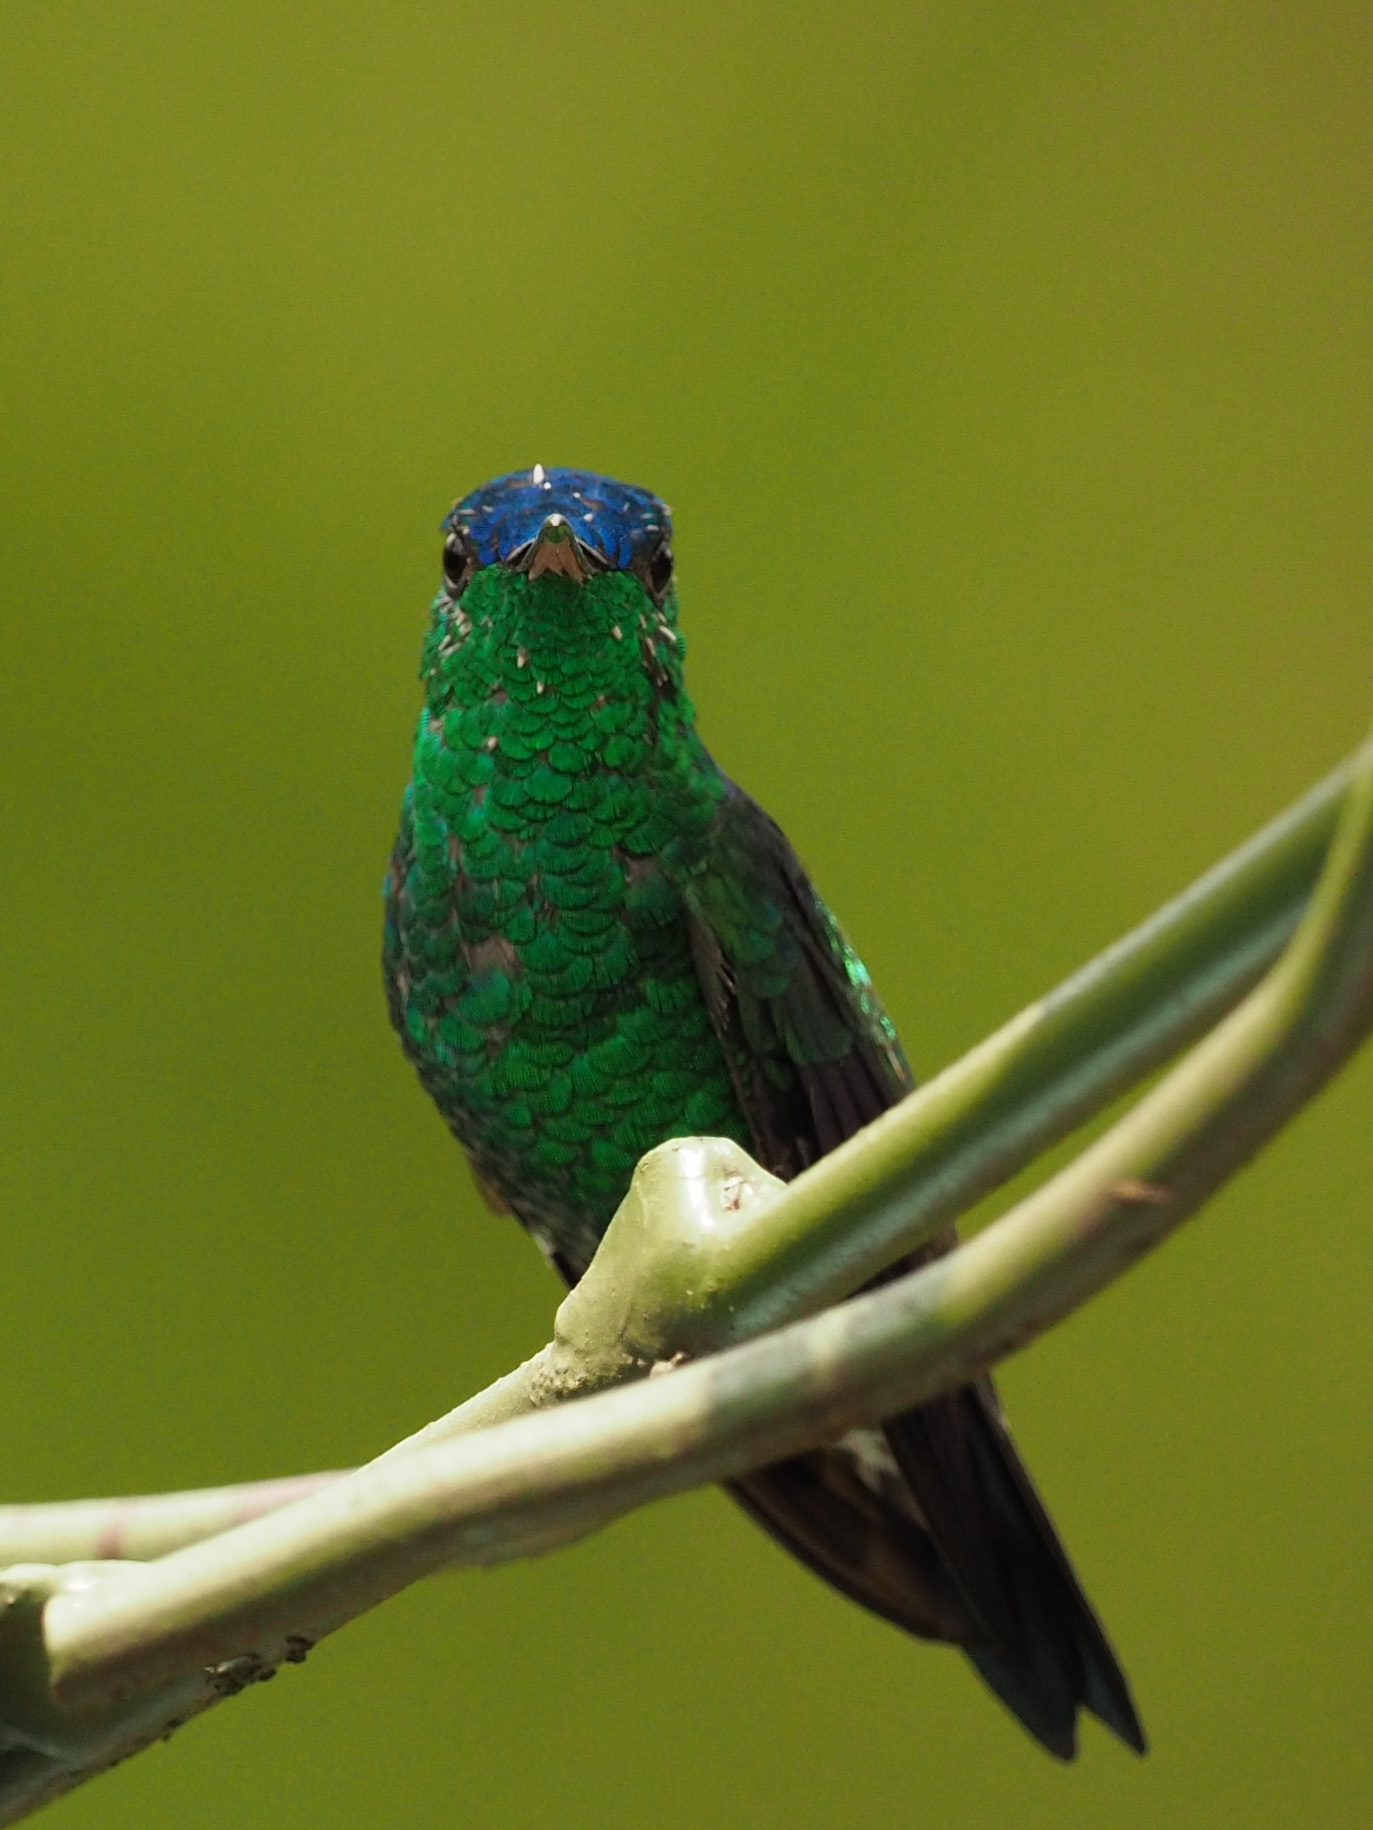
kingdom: Animalia
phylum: Chordata
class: Aves
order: Apodiformes
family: Trochilidae
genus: Saucerottia
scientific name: Saucerottia cyanifrons
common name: Indigo-capped hummingbird
